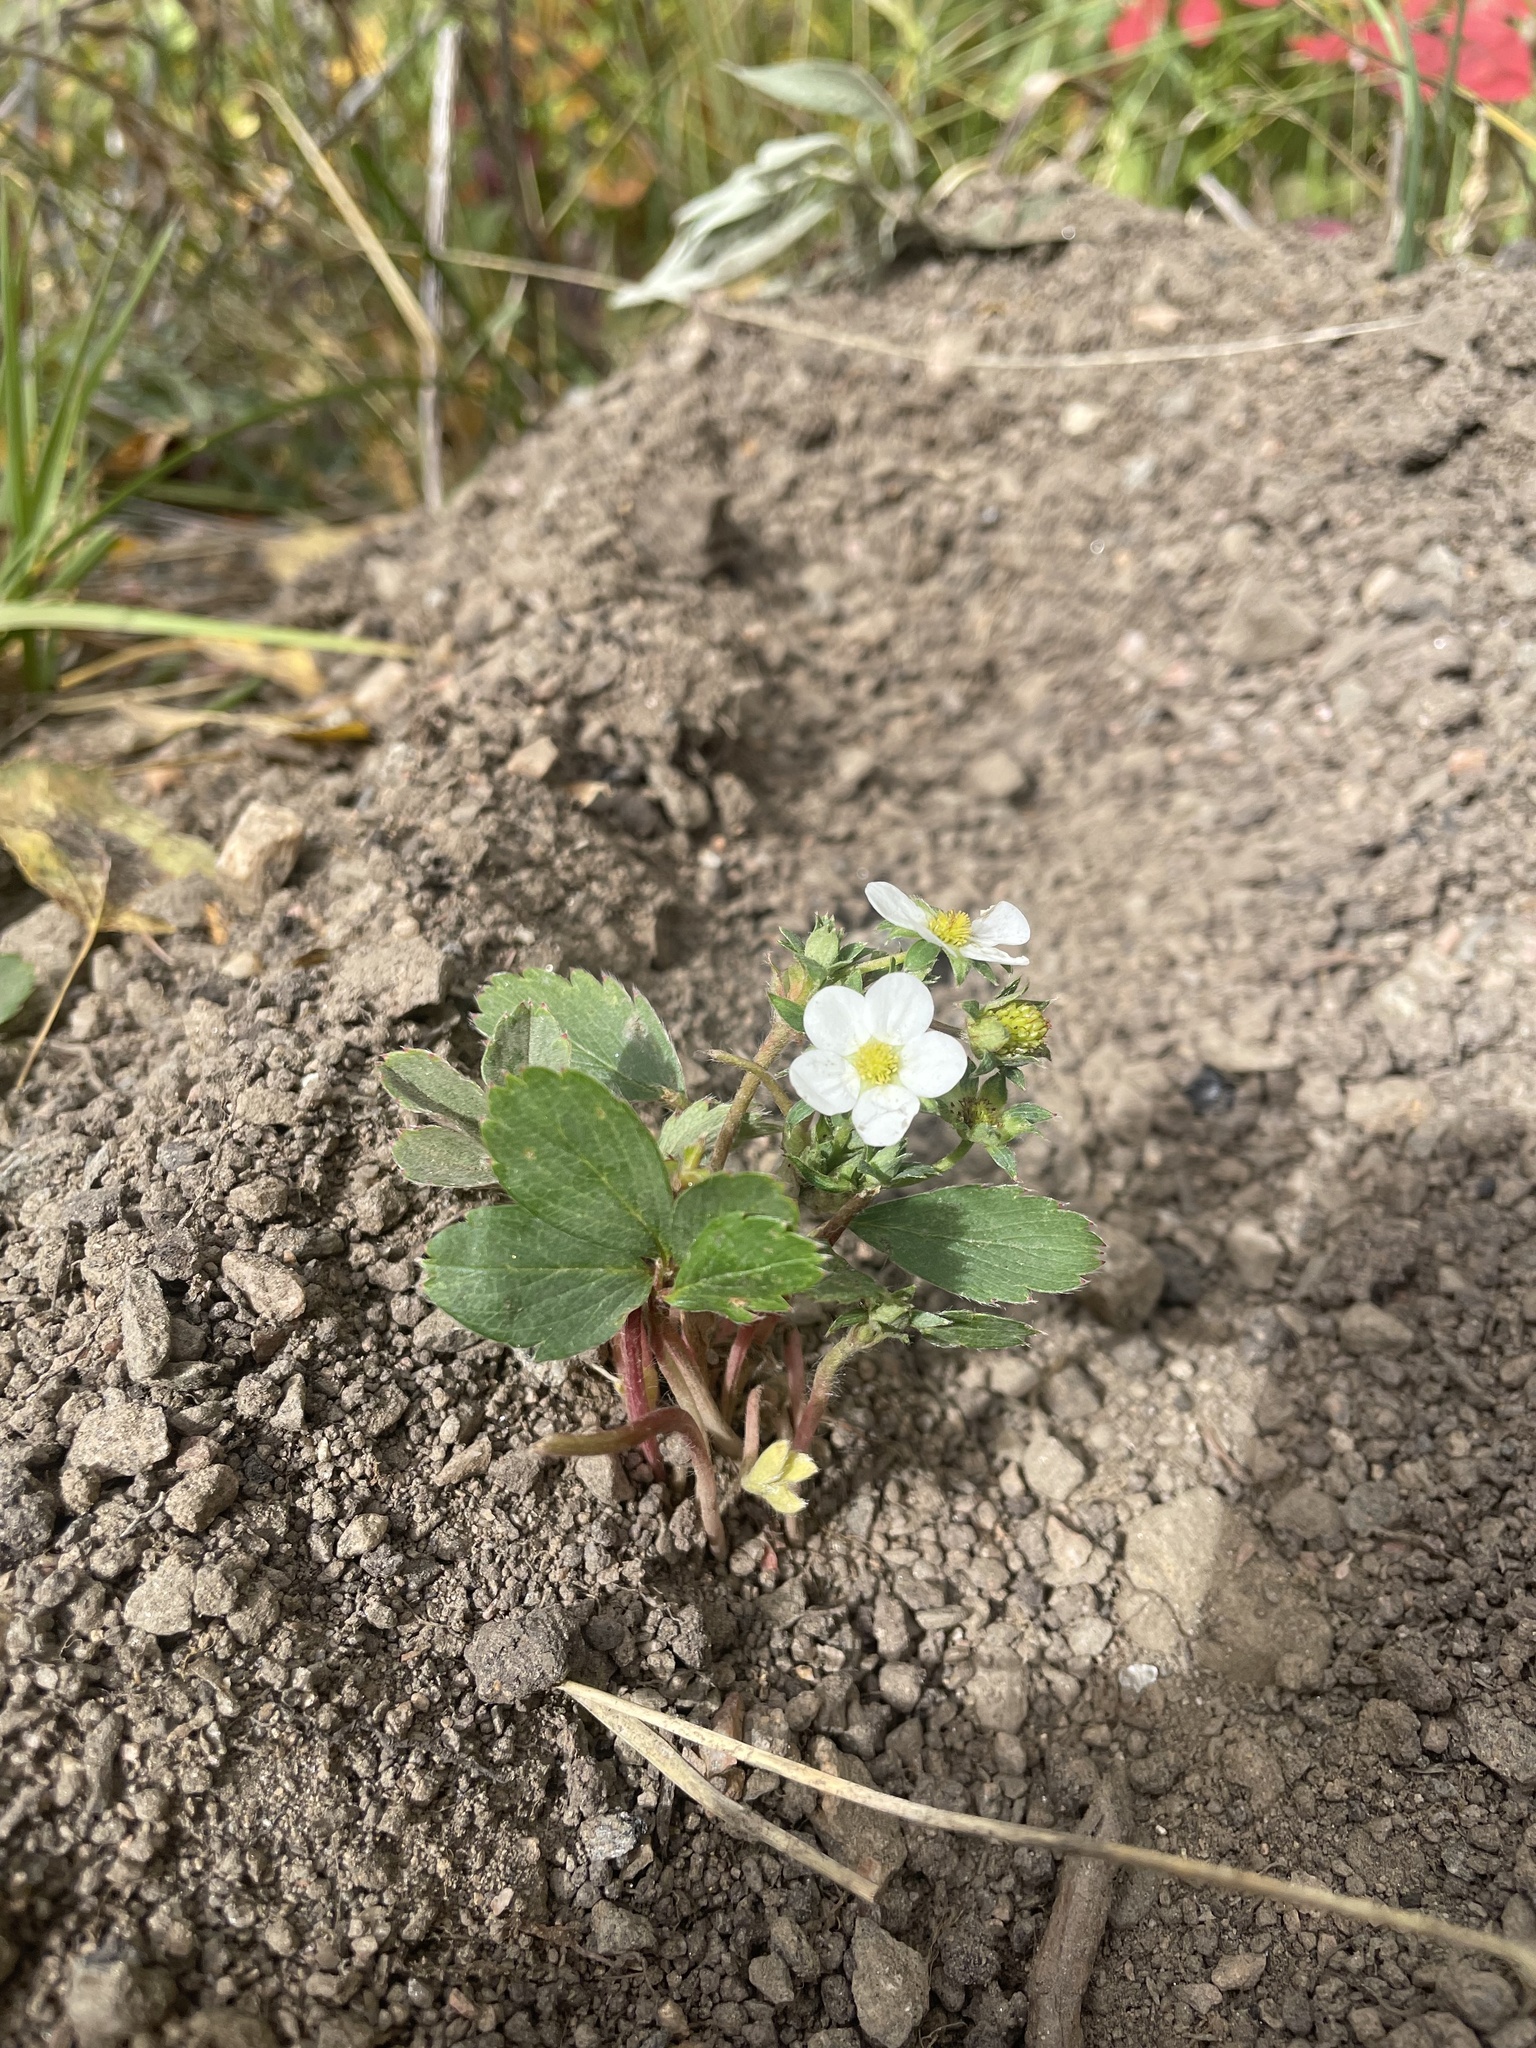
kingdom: Plantae
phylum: Tracheophyta
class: Magnoliopsida
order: Rosales
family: Rosaceae
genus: Fragaria
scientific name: Fragaria virginiana
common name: Thickleaved wild strawberry
